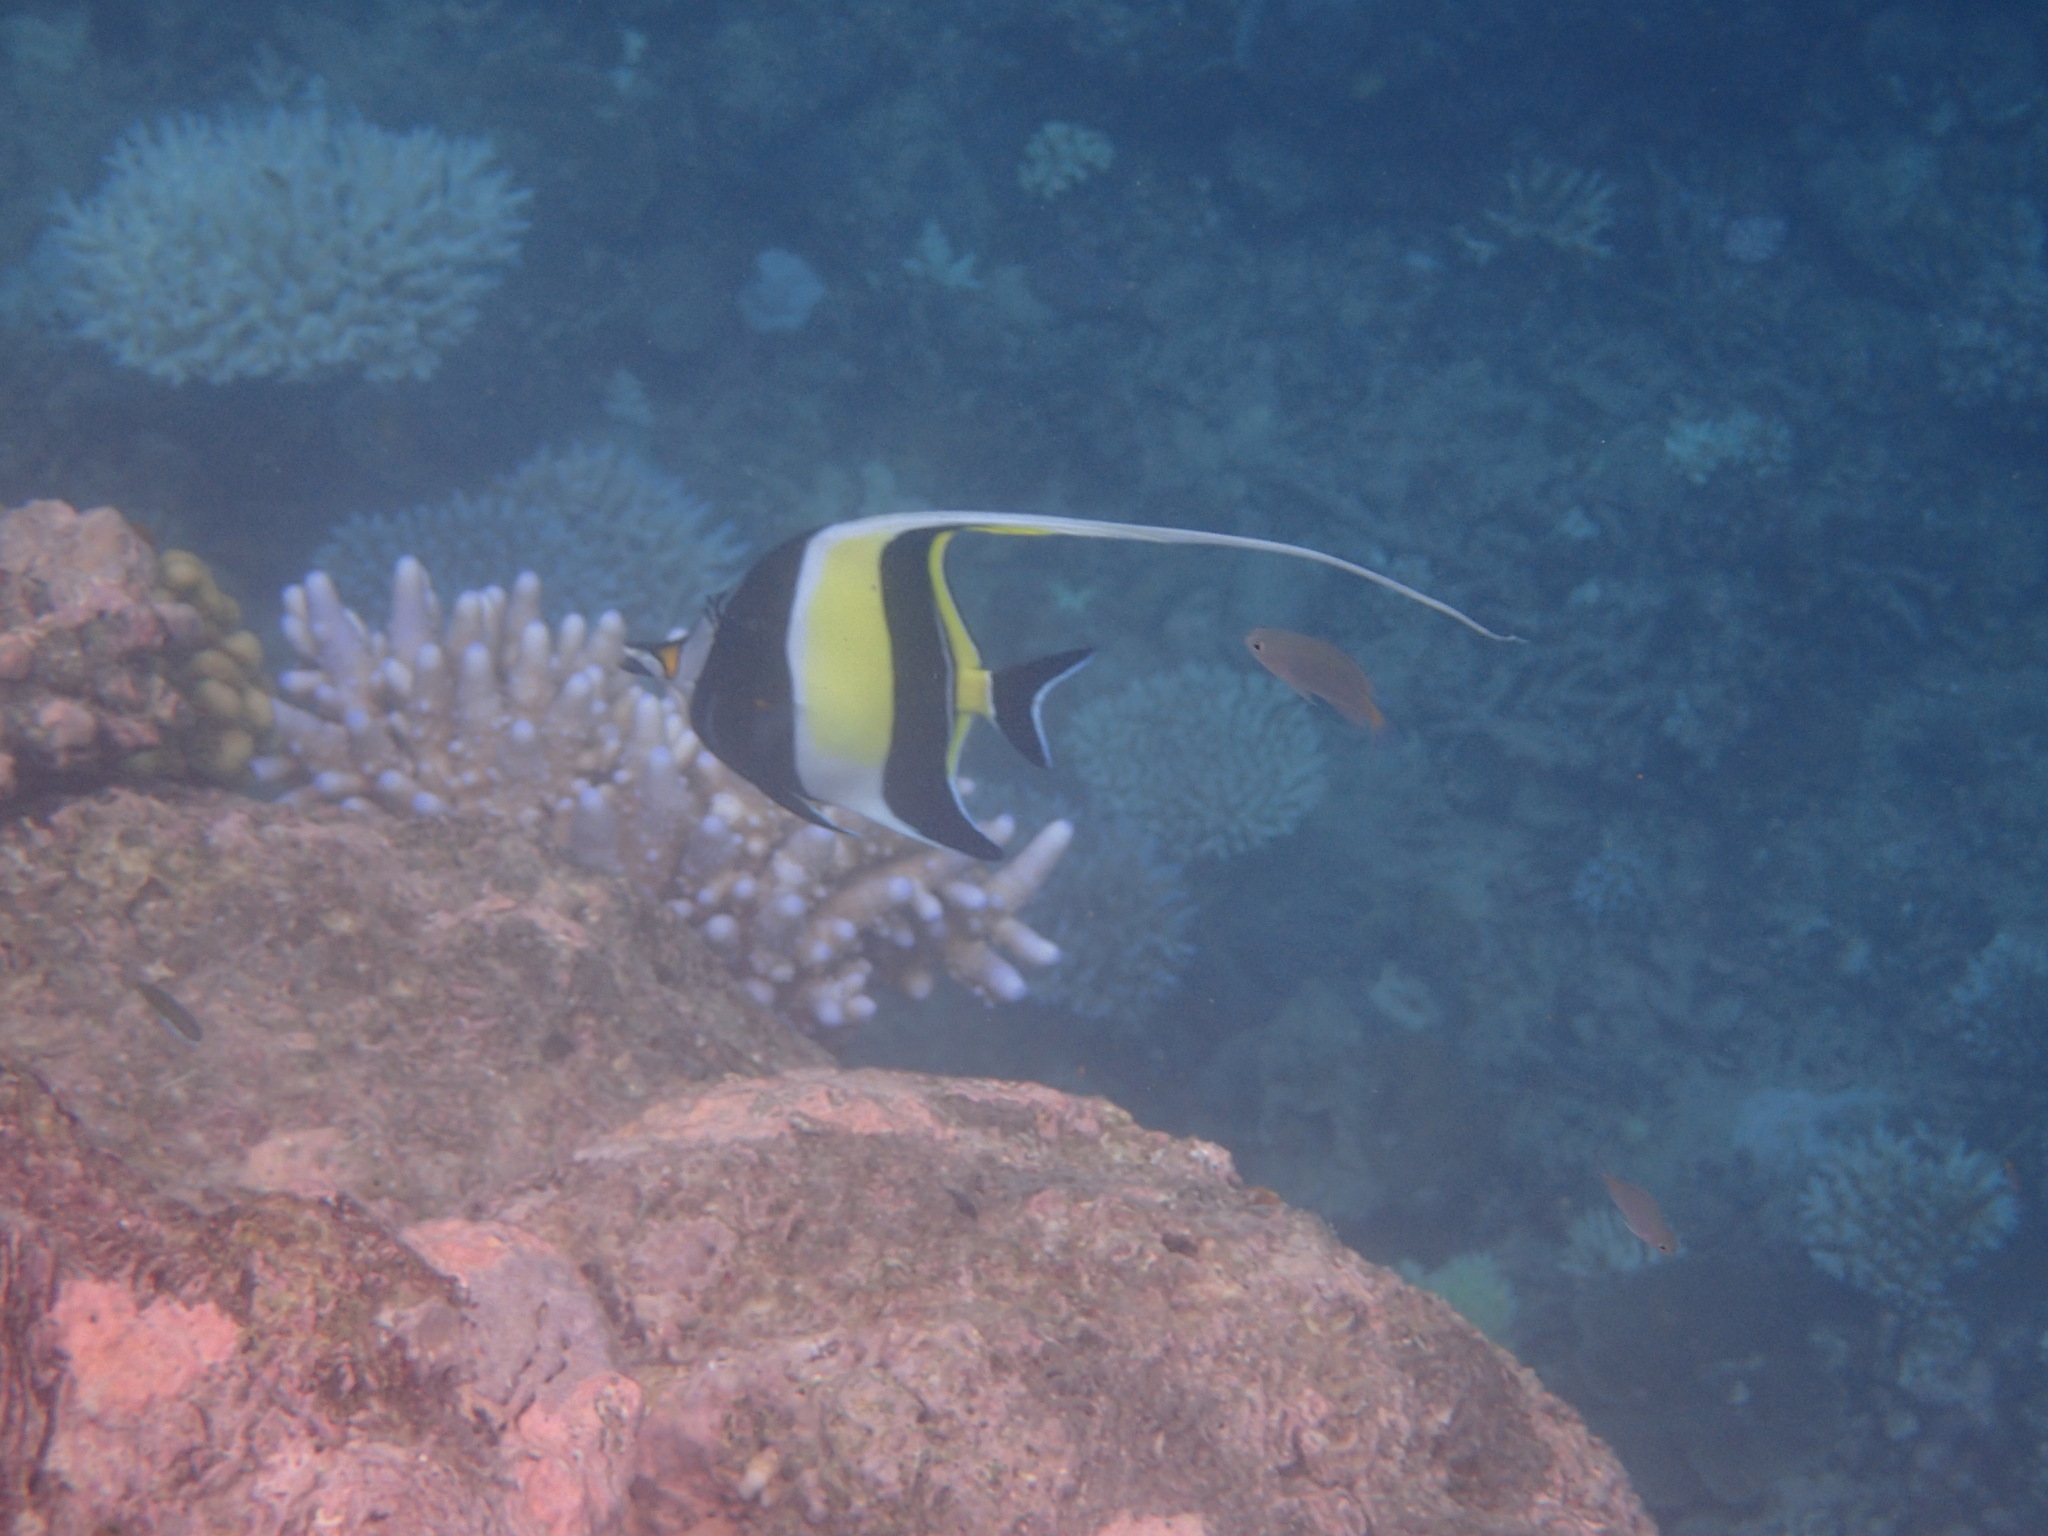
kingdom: Animalia
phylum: Chordata
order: Perciformes
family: Zanclidae
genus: Zanclus
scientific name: Zanclus cornutus
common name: Moorish idol
